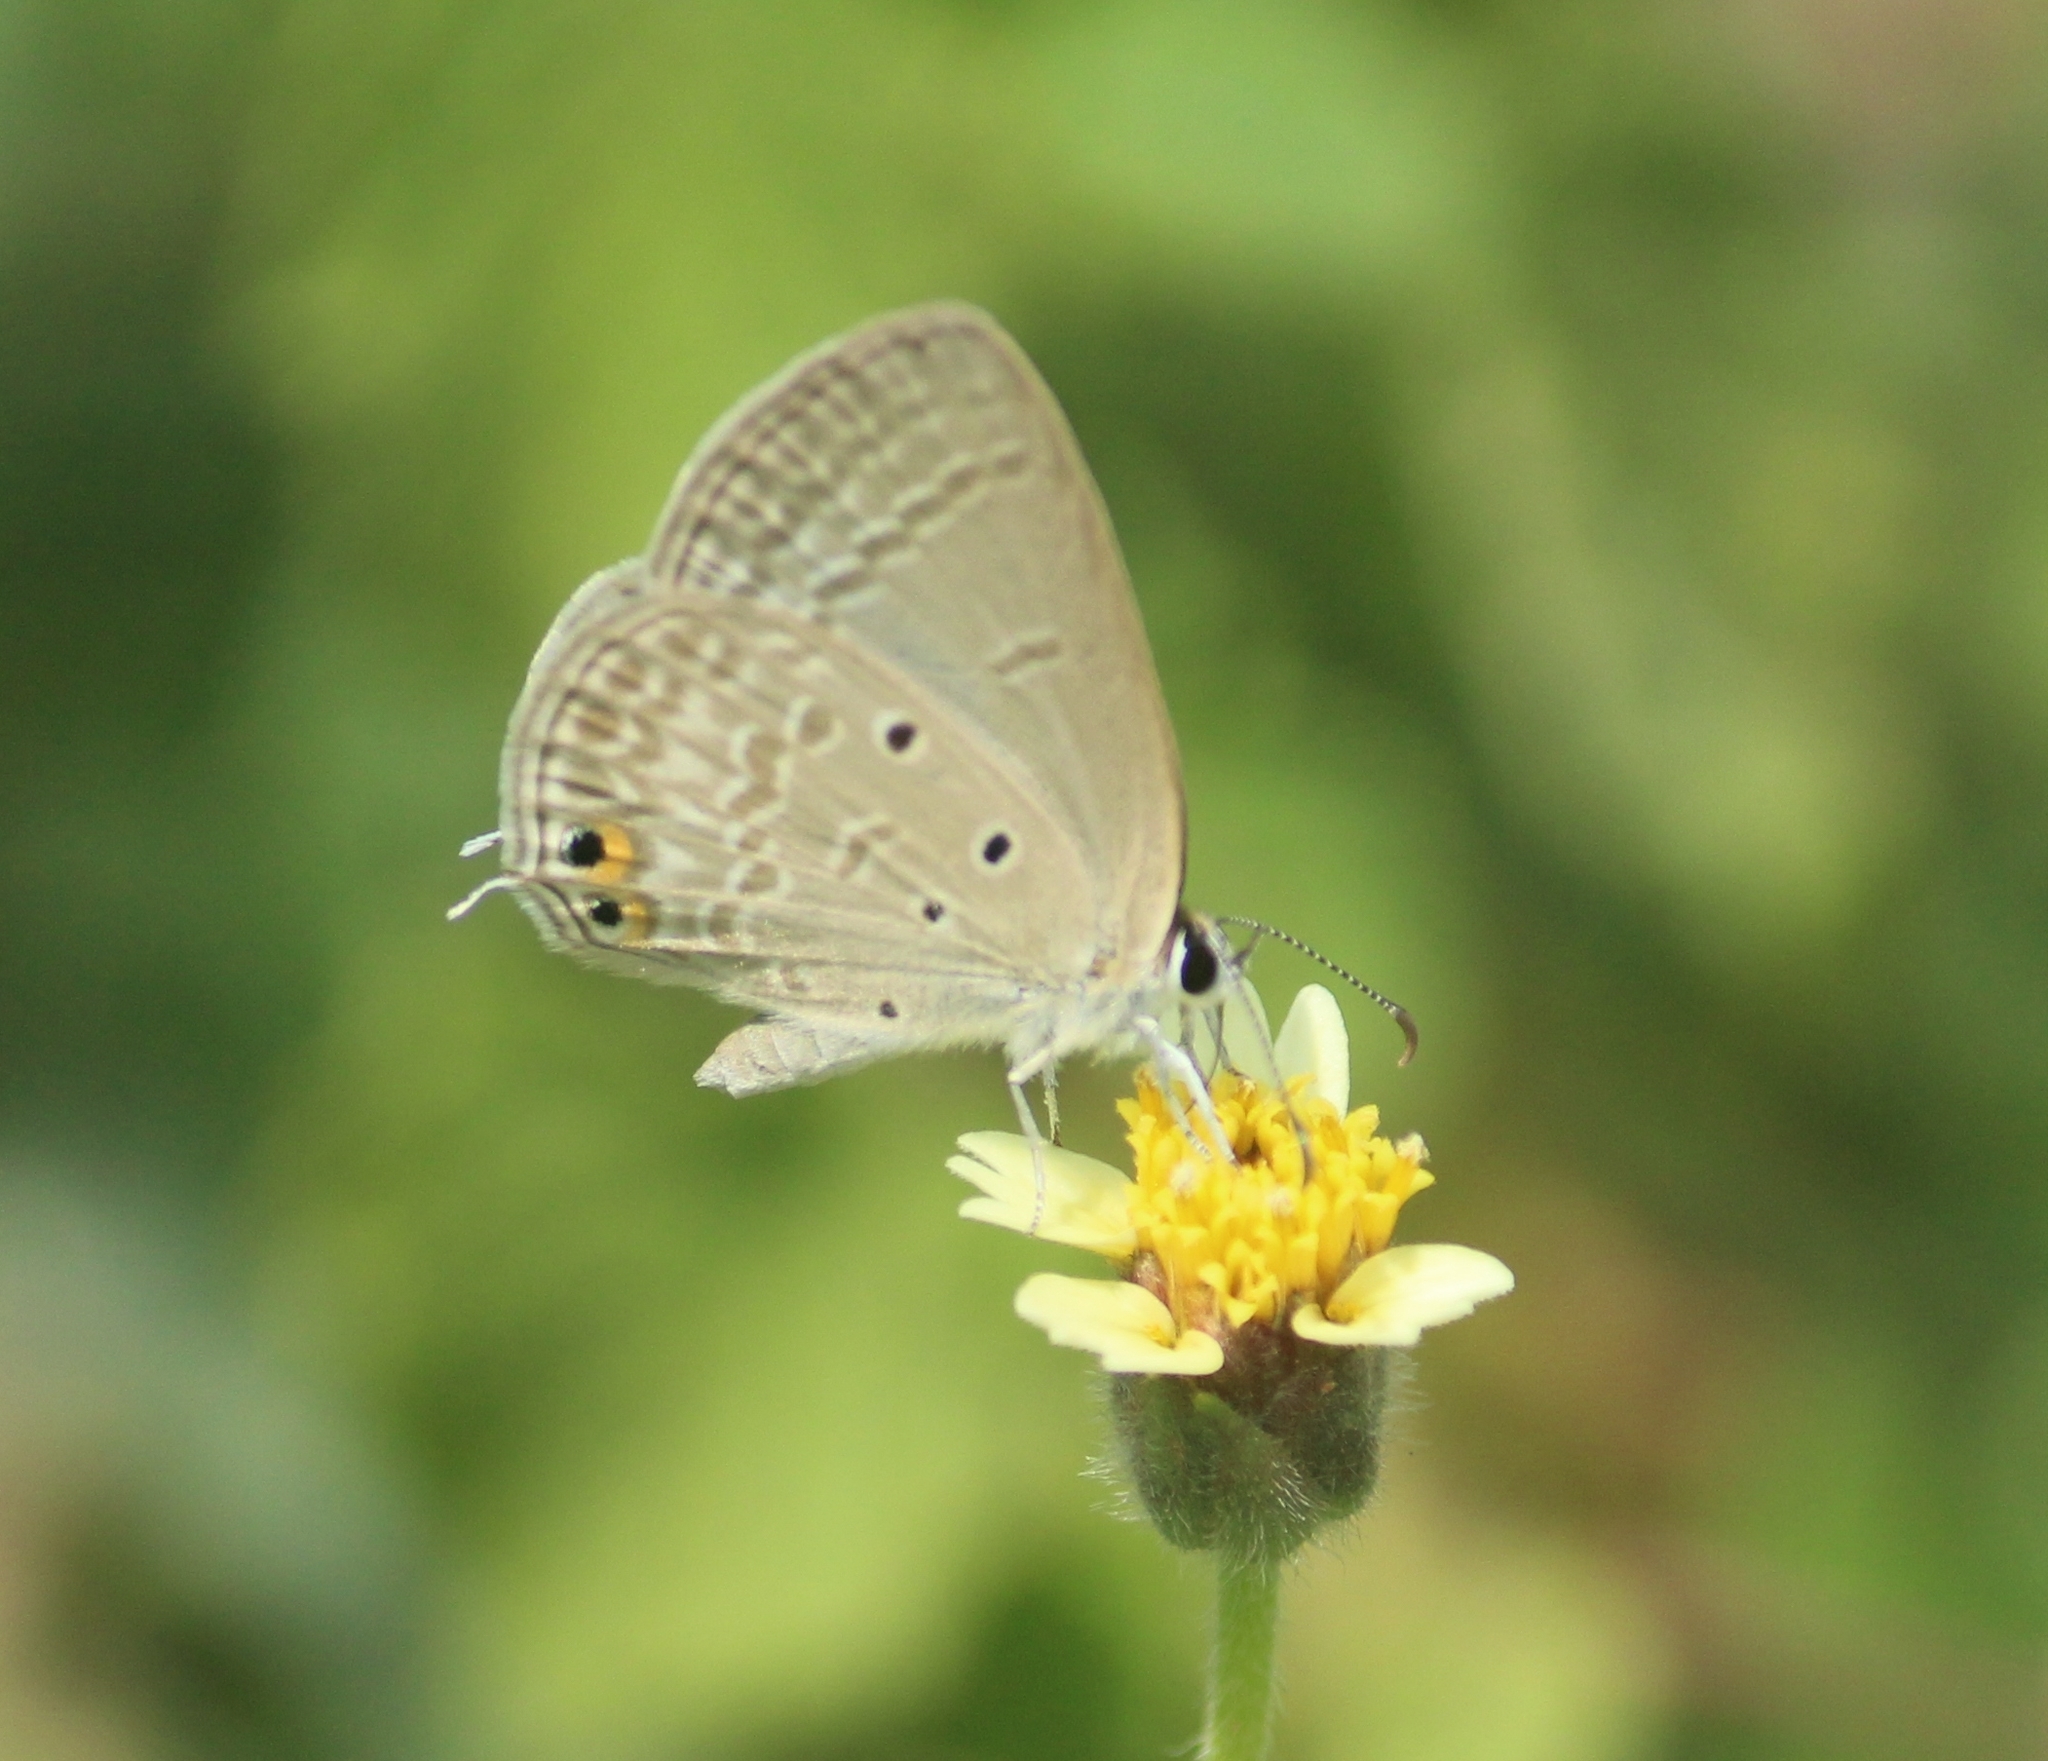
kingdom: Animalia
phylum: Arthropoda
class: Insecta
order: Lepidoptera
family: Lycaenidae
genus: Euchrysops
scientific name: Euchrysops cnejus
